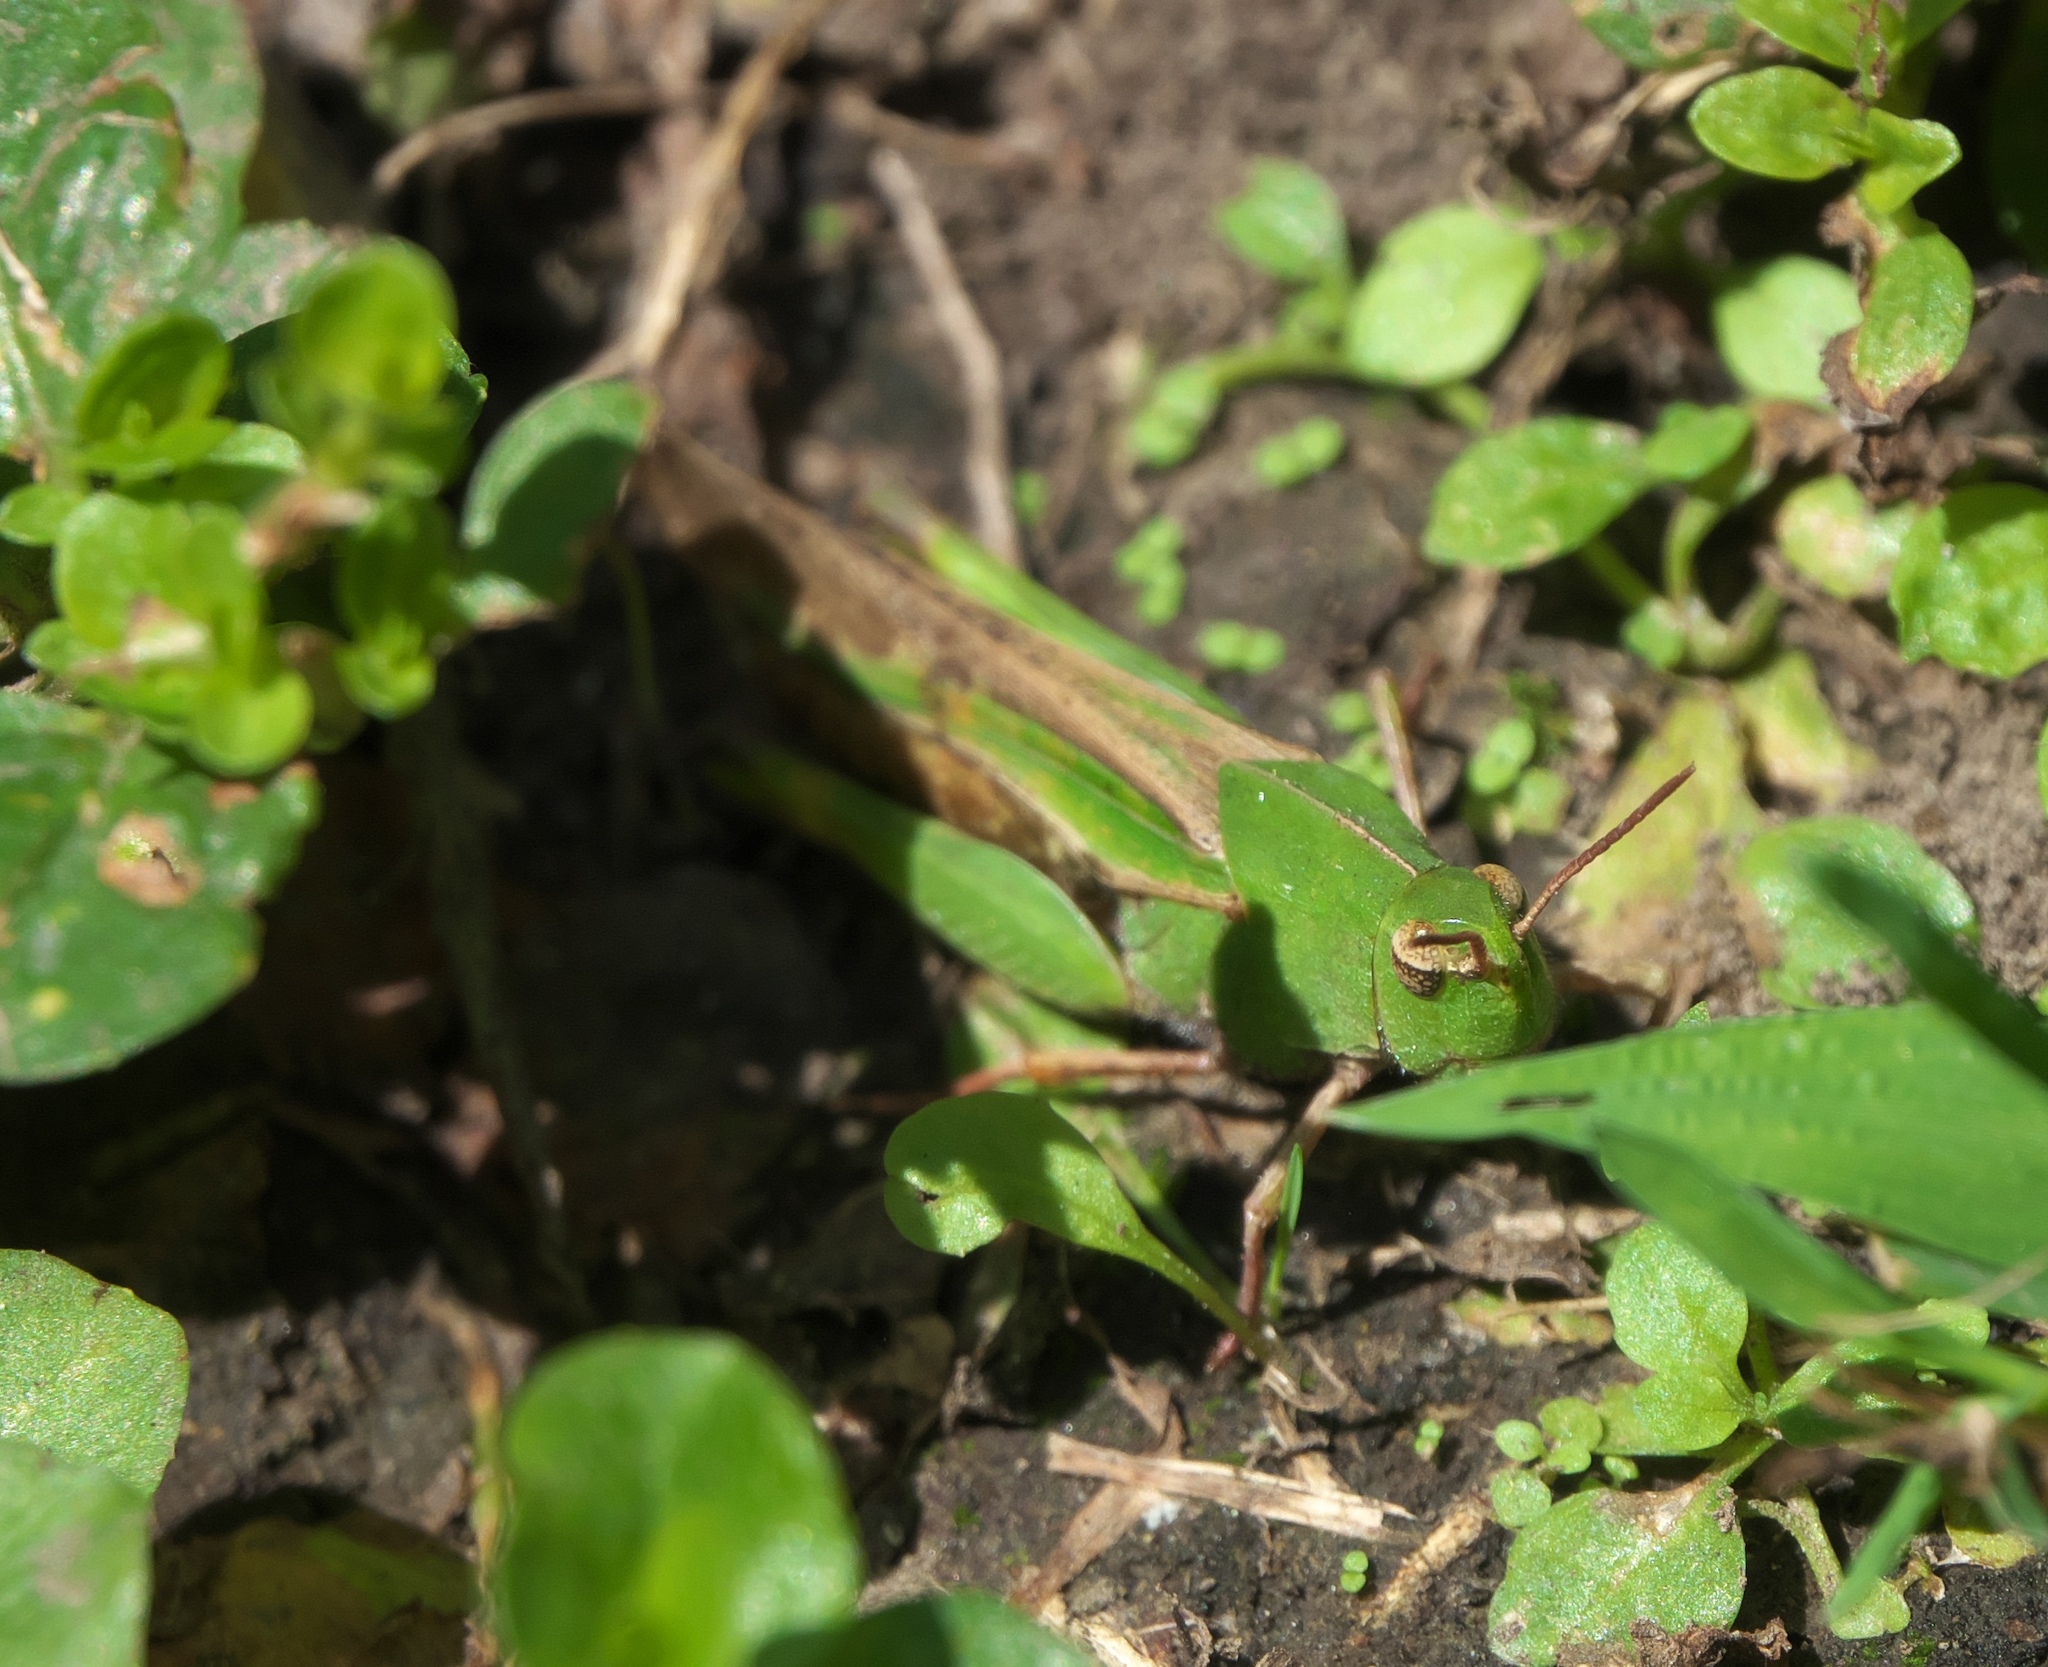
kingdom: Animalia
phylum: Arthropoda
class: Insecta
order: Orthoptera
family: Acrididae
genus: Chortophaga
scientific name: Chortophaga viridifasciata
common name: Green-striped grasshopper
